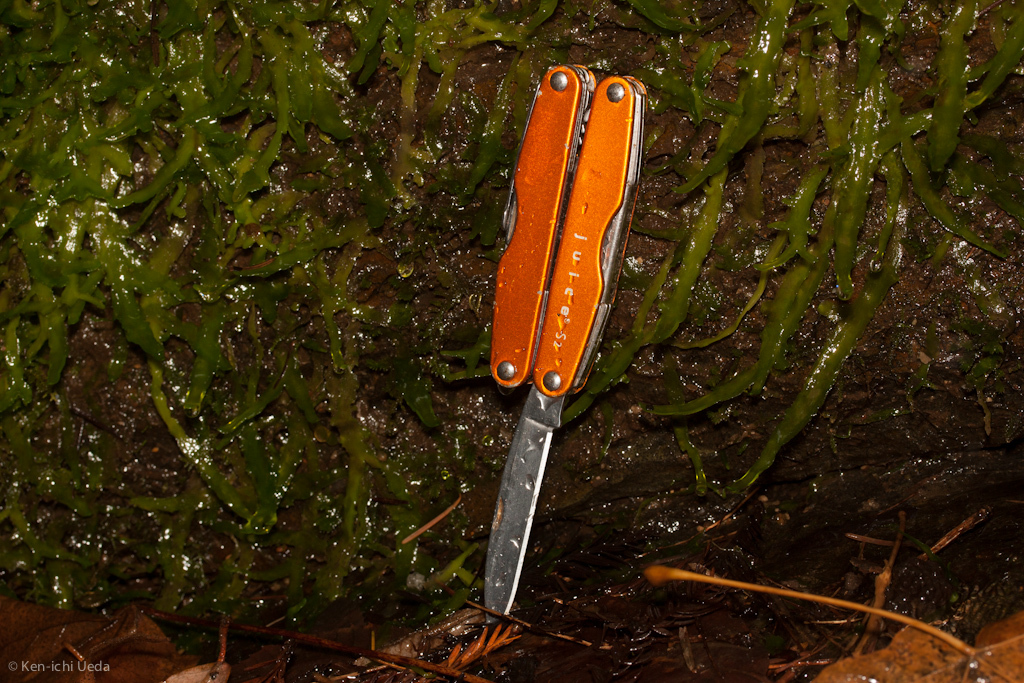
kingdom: Plantae
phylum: Marchantiophyta
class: Jungermanniopsida
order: Metzgeriales
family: Aneuraceae
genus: Aneura
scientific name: Aneura pinguis
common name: Common greasewort
